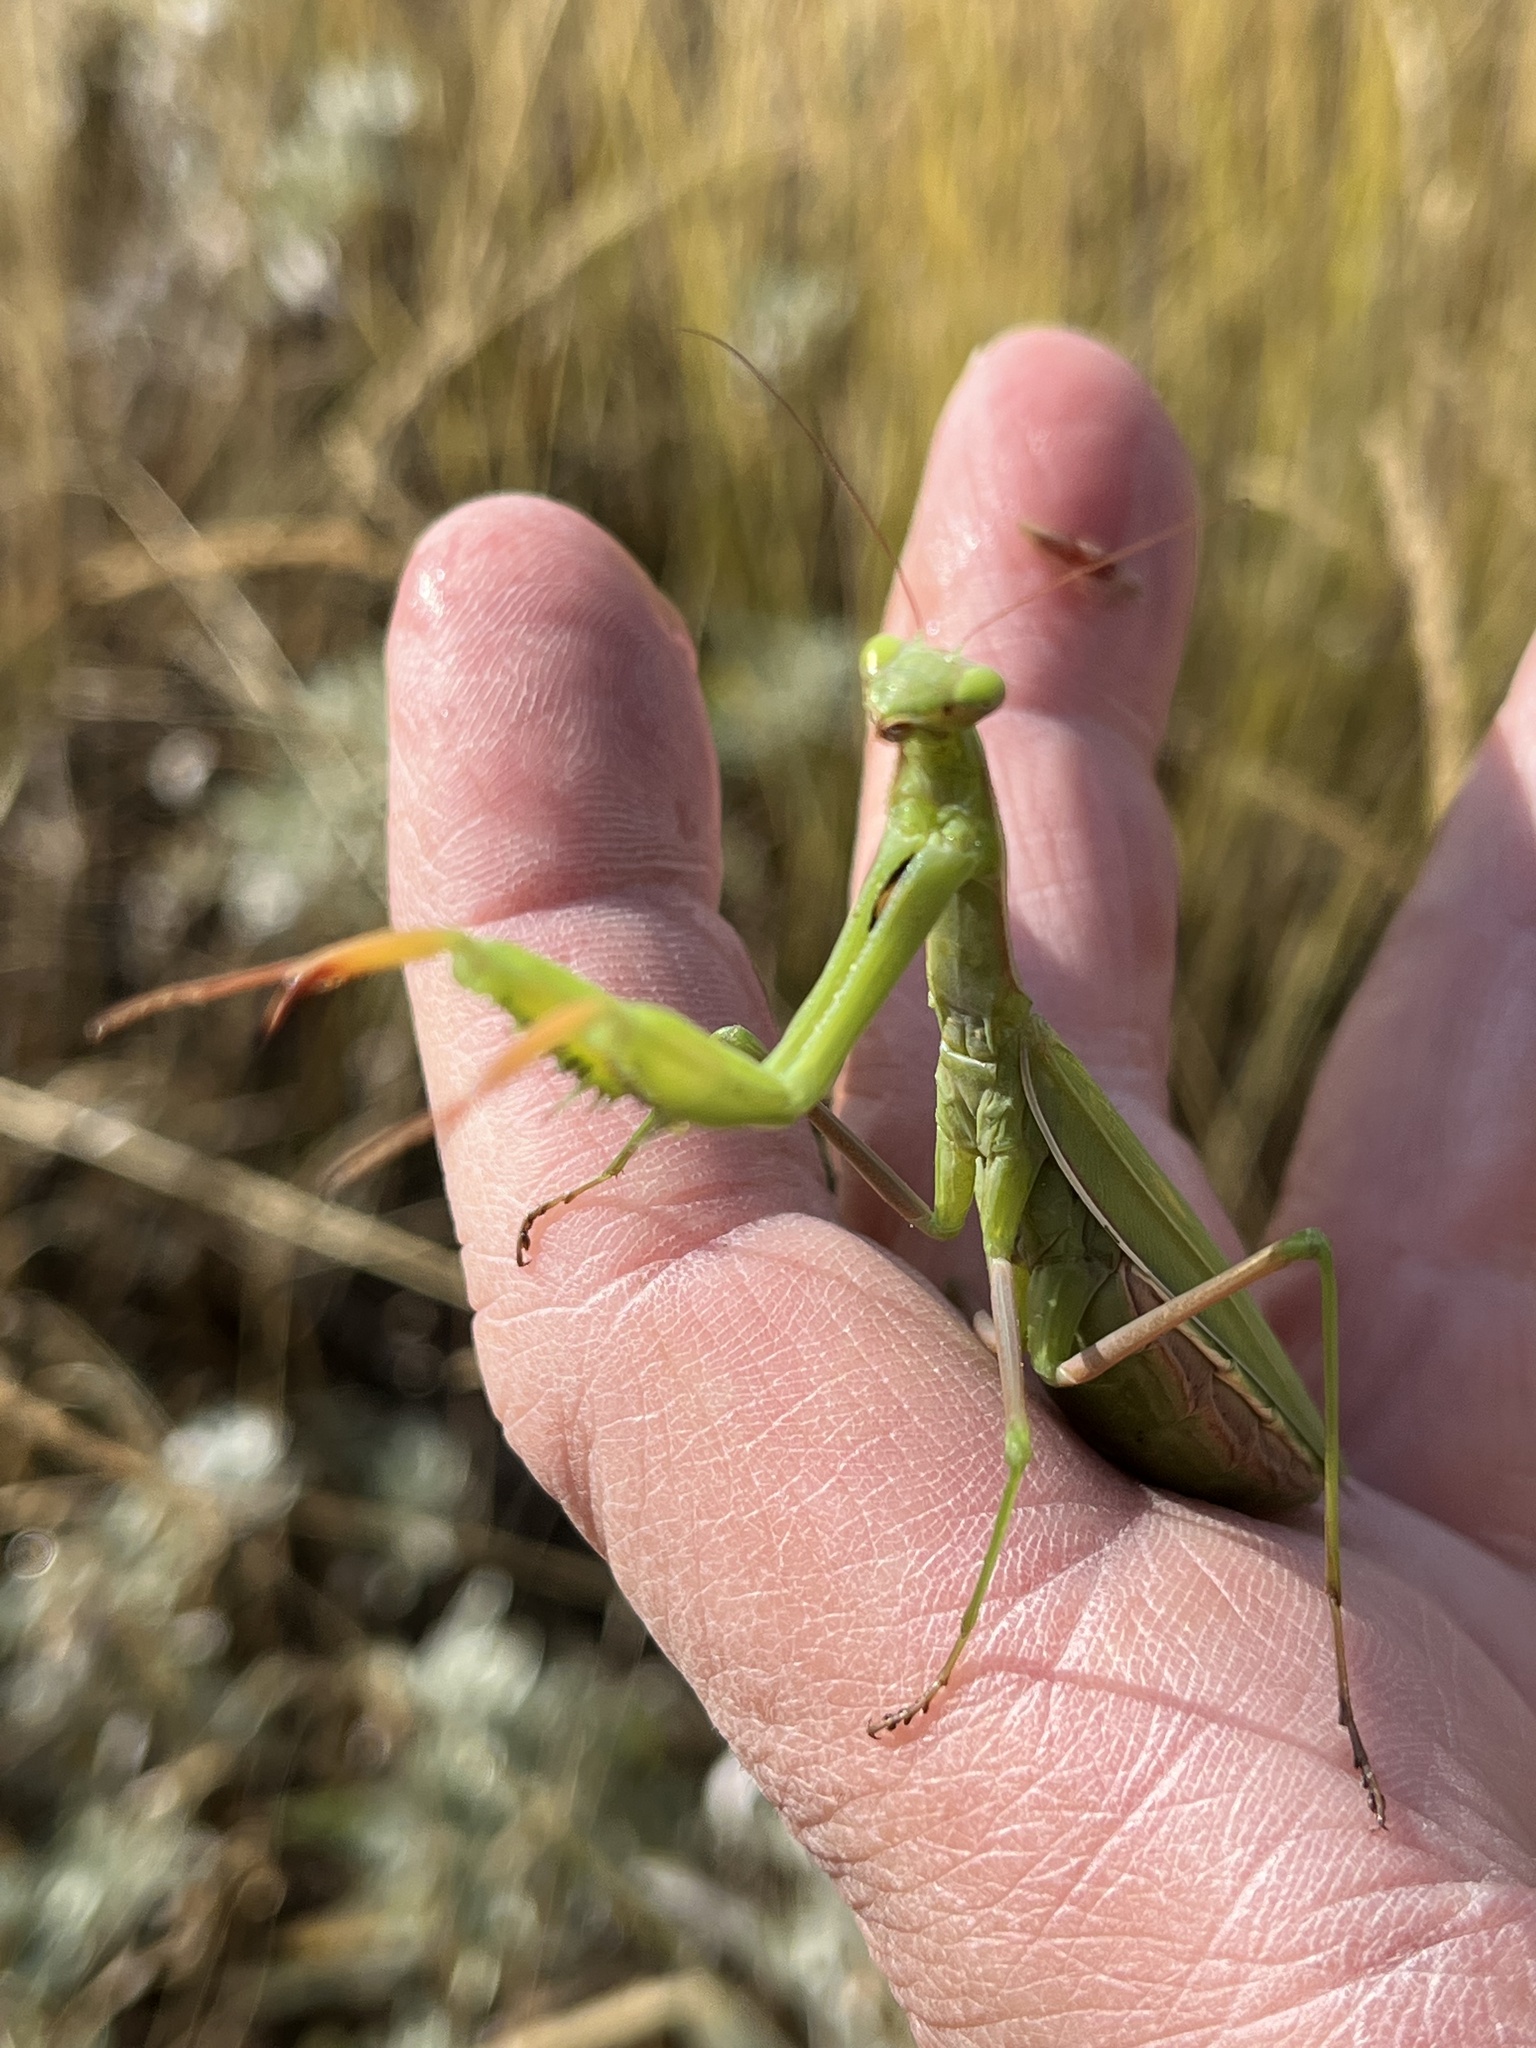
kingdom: Animalia
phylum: Arthropoda
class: Insecta
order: Mantodea
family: Mantidae
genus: Mantis
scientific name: Mantis religiosa
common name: Praying mantis
